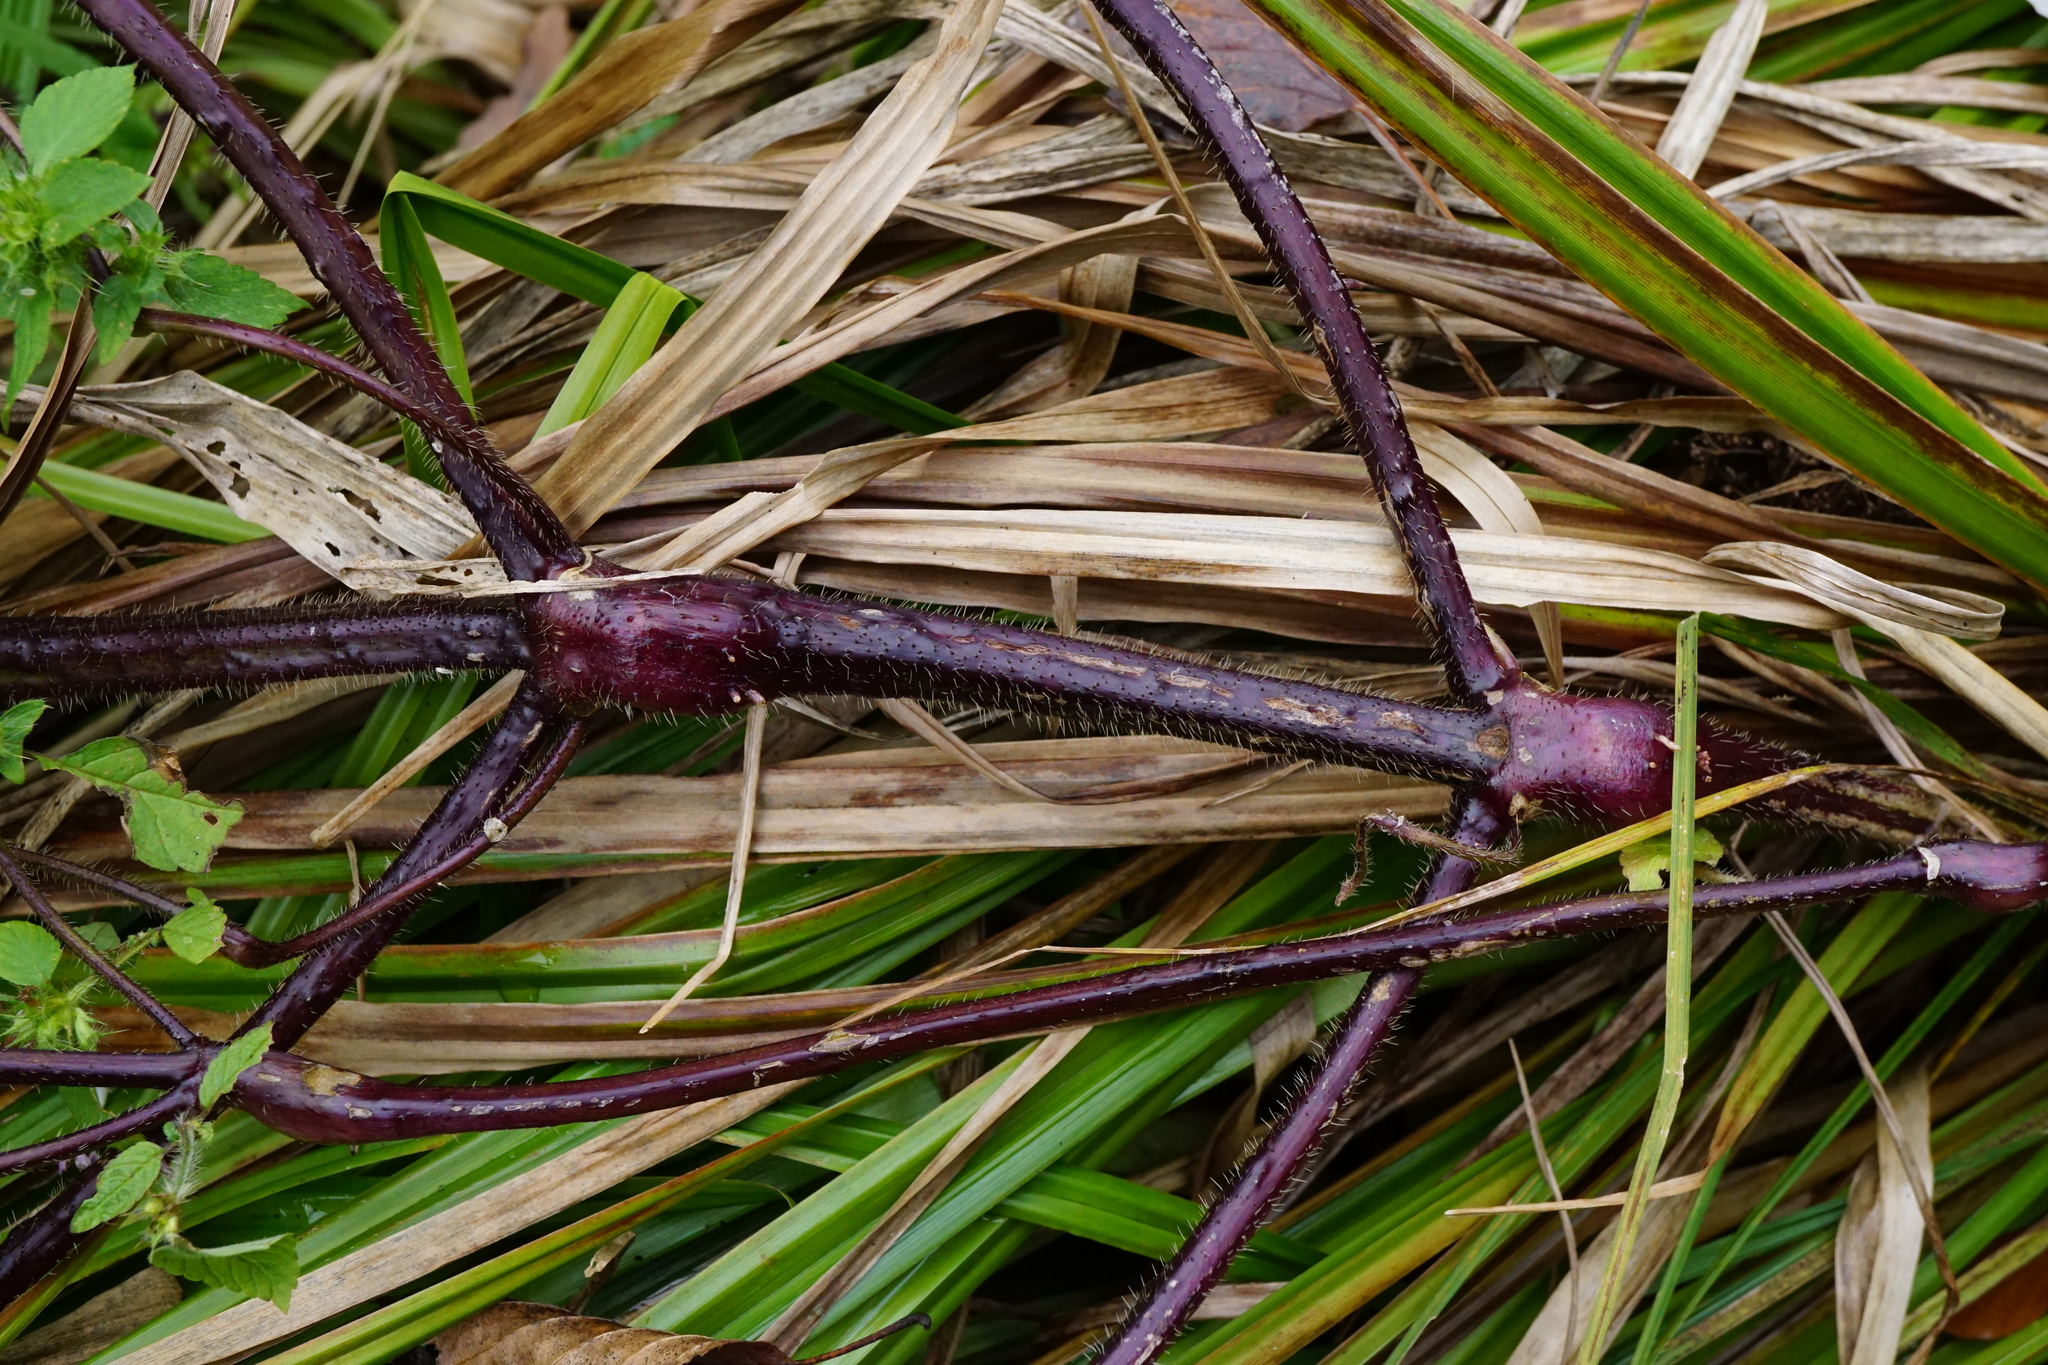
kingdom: Plantae
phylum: Tracheophyta
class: Magnoliopsida
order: Lamiales
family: Lamiaceae
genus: Galeopsis
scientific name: Galeopsis bifida
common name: Bifid hemp-nettle
